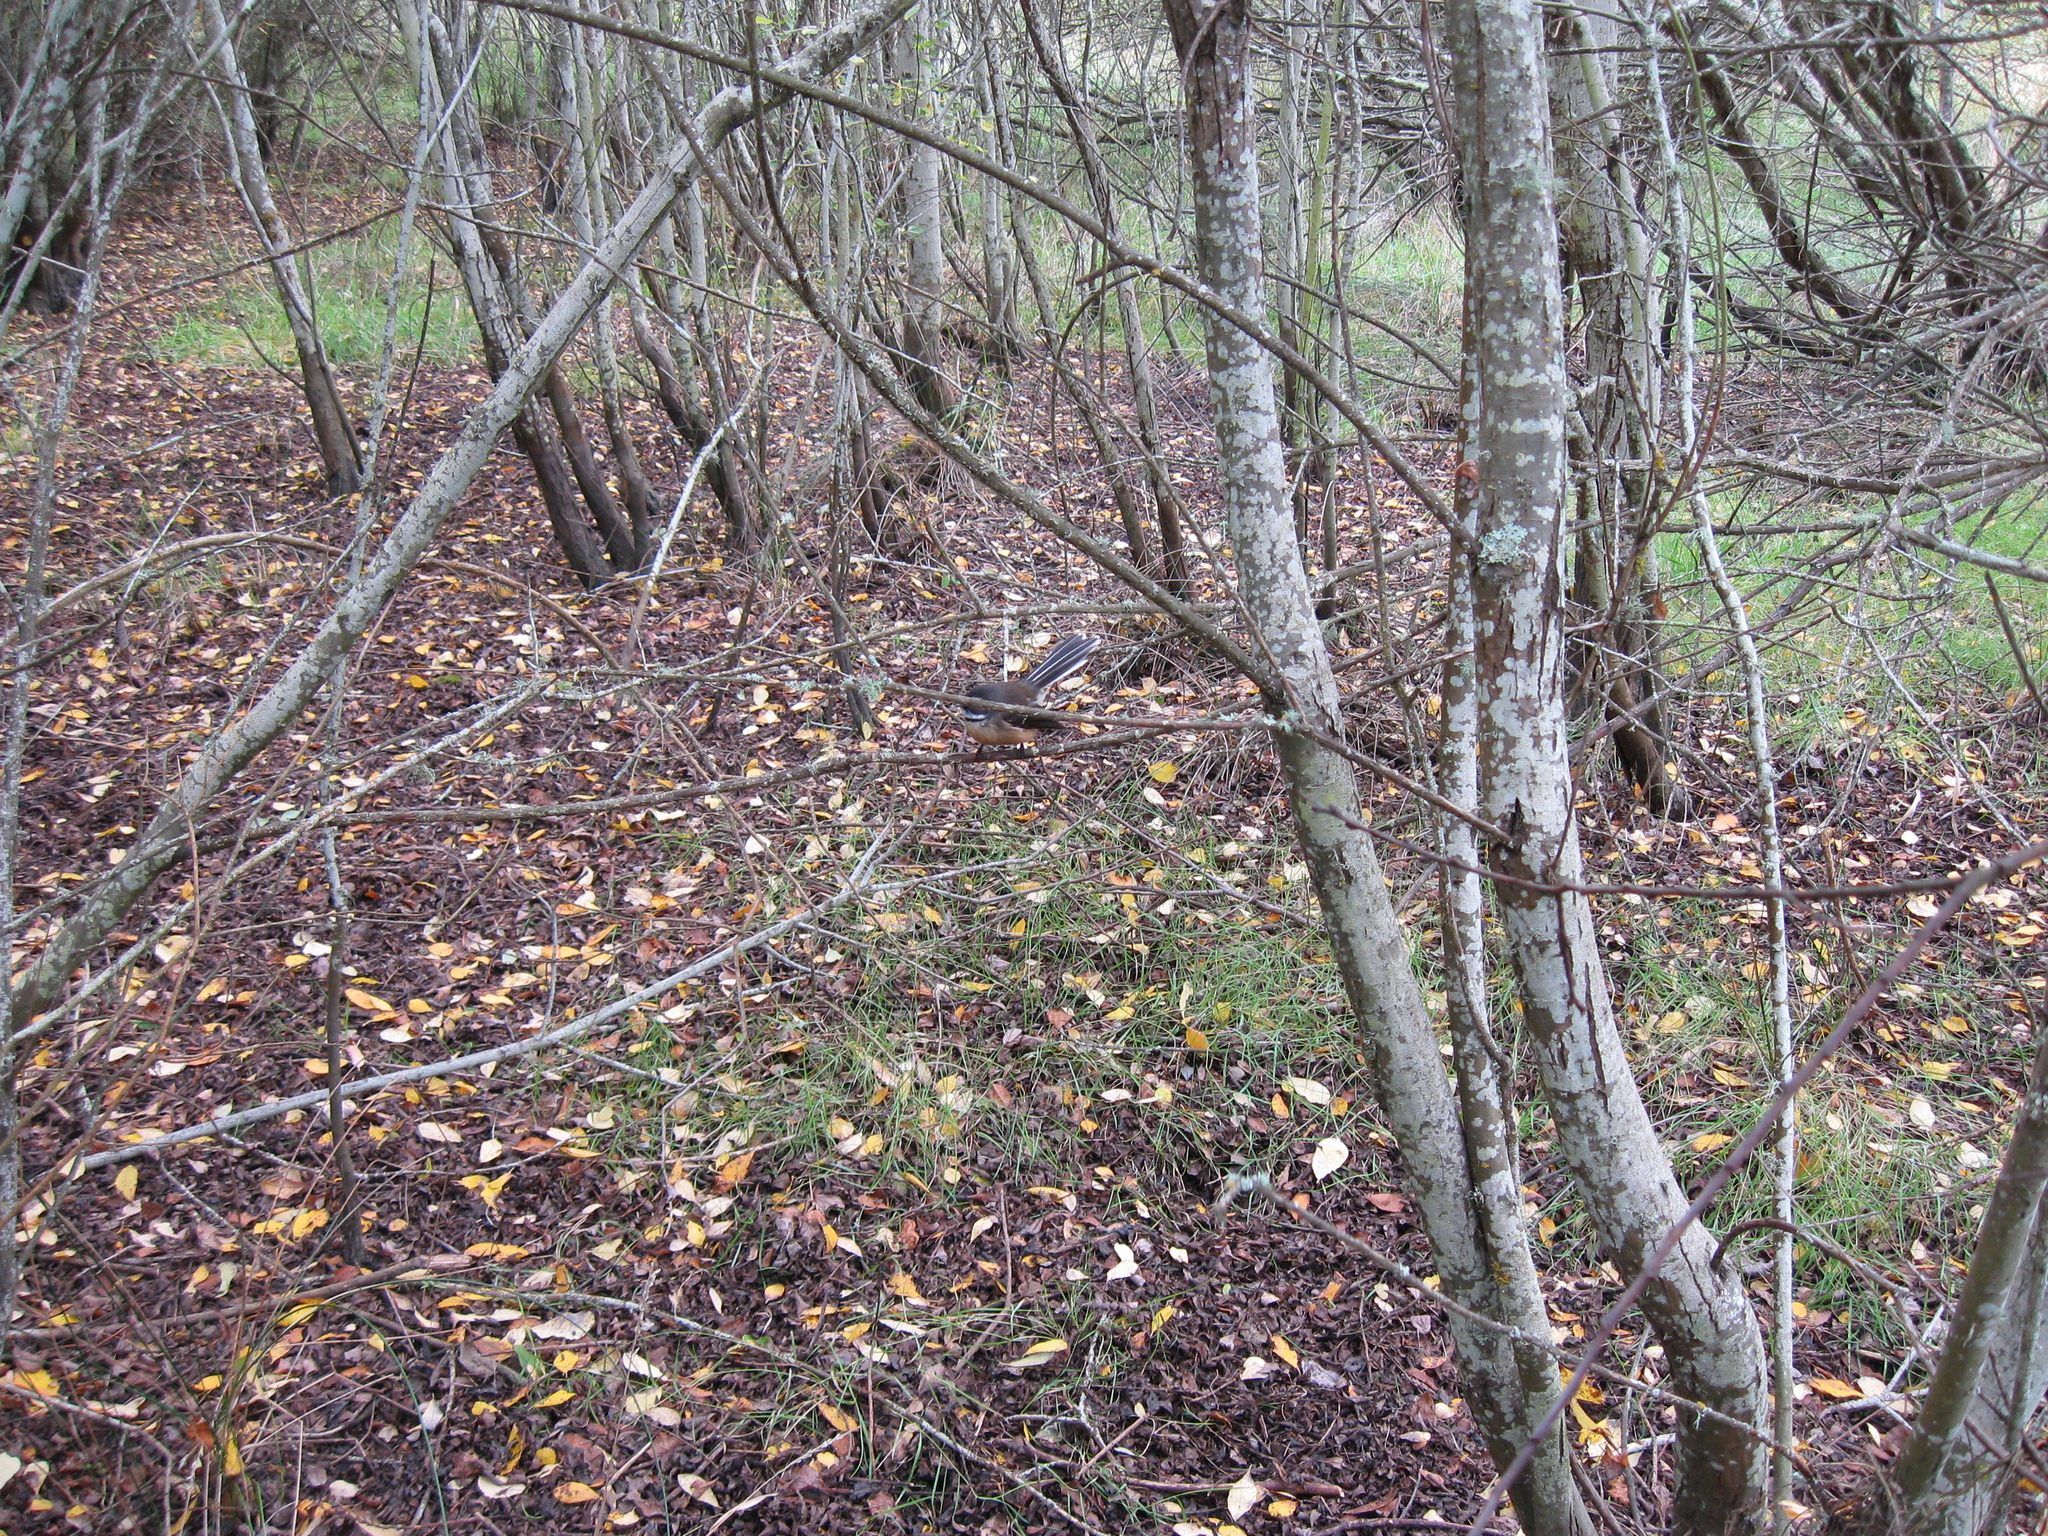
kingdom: Animalia
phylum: Chordata
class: Aves
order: Passeriformes
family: Rhipiduridae
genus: Rhipidura
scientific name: Rhipidura fuliginosa
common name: New zealand fantail
